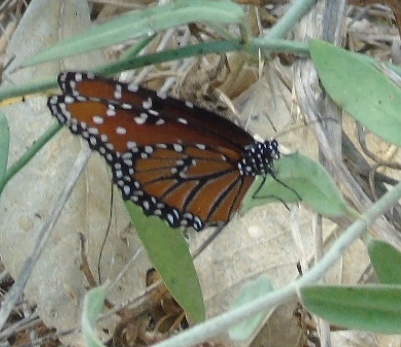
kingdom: Animalia
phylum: Arthropoda
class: Insecta
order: Lepidoptera
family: Nymphalidae
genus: Danaus
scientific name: Danaus gilippus
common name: Queen
